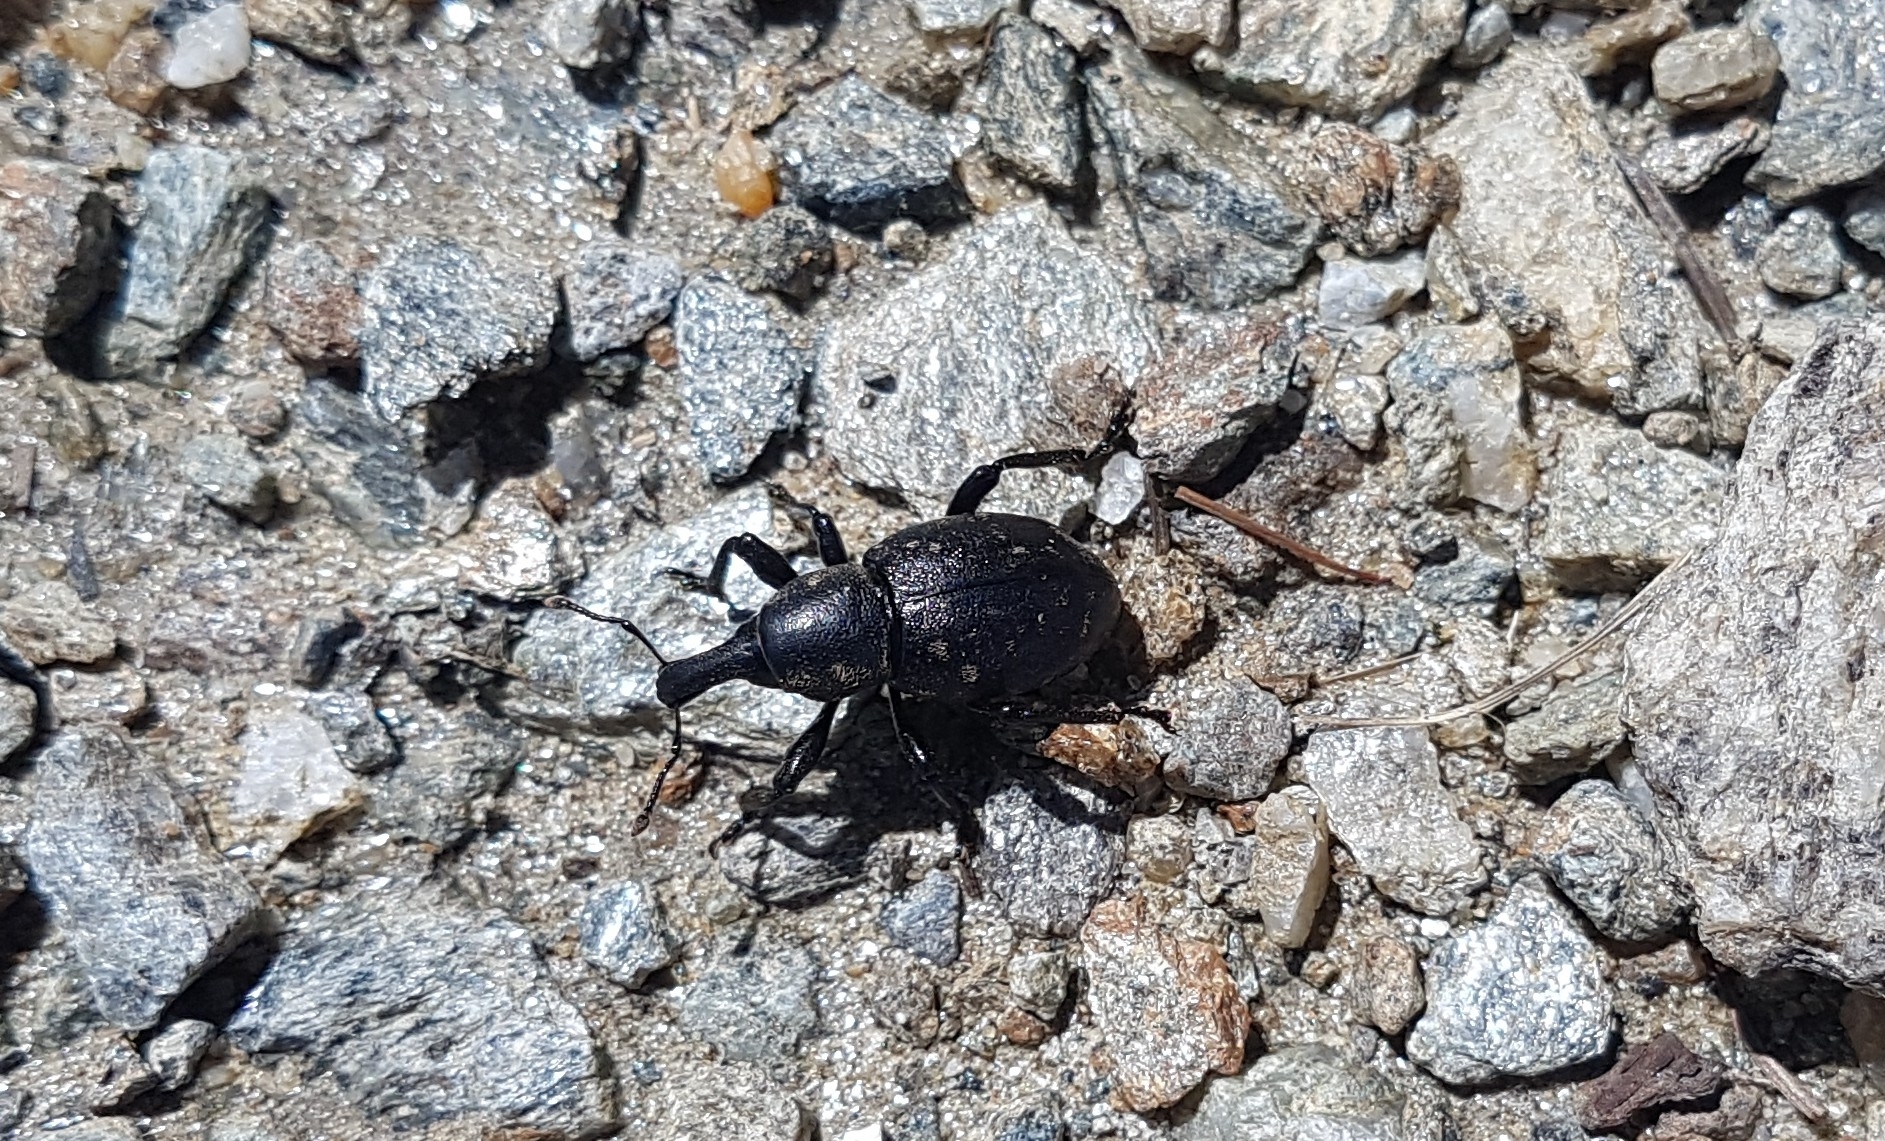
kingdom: Animalia
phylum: Arthropoda
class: Insecta
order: Coleoptera
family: Curculionidae
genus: Liparus
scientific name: Liparus germanus
